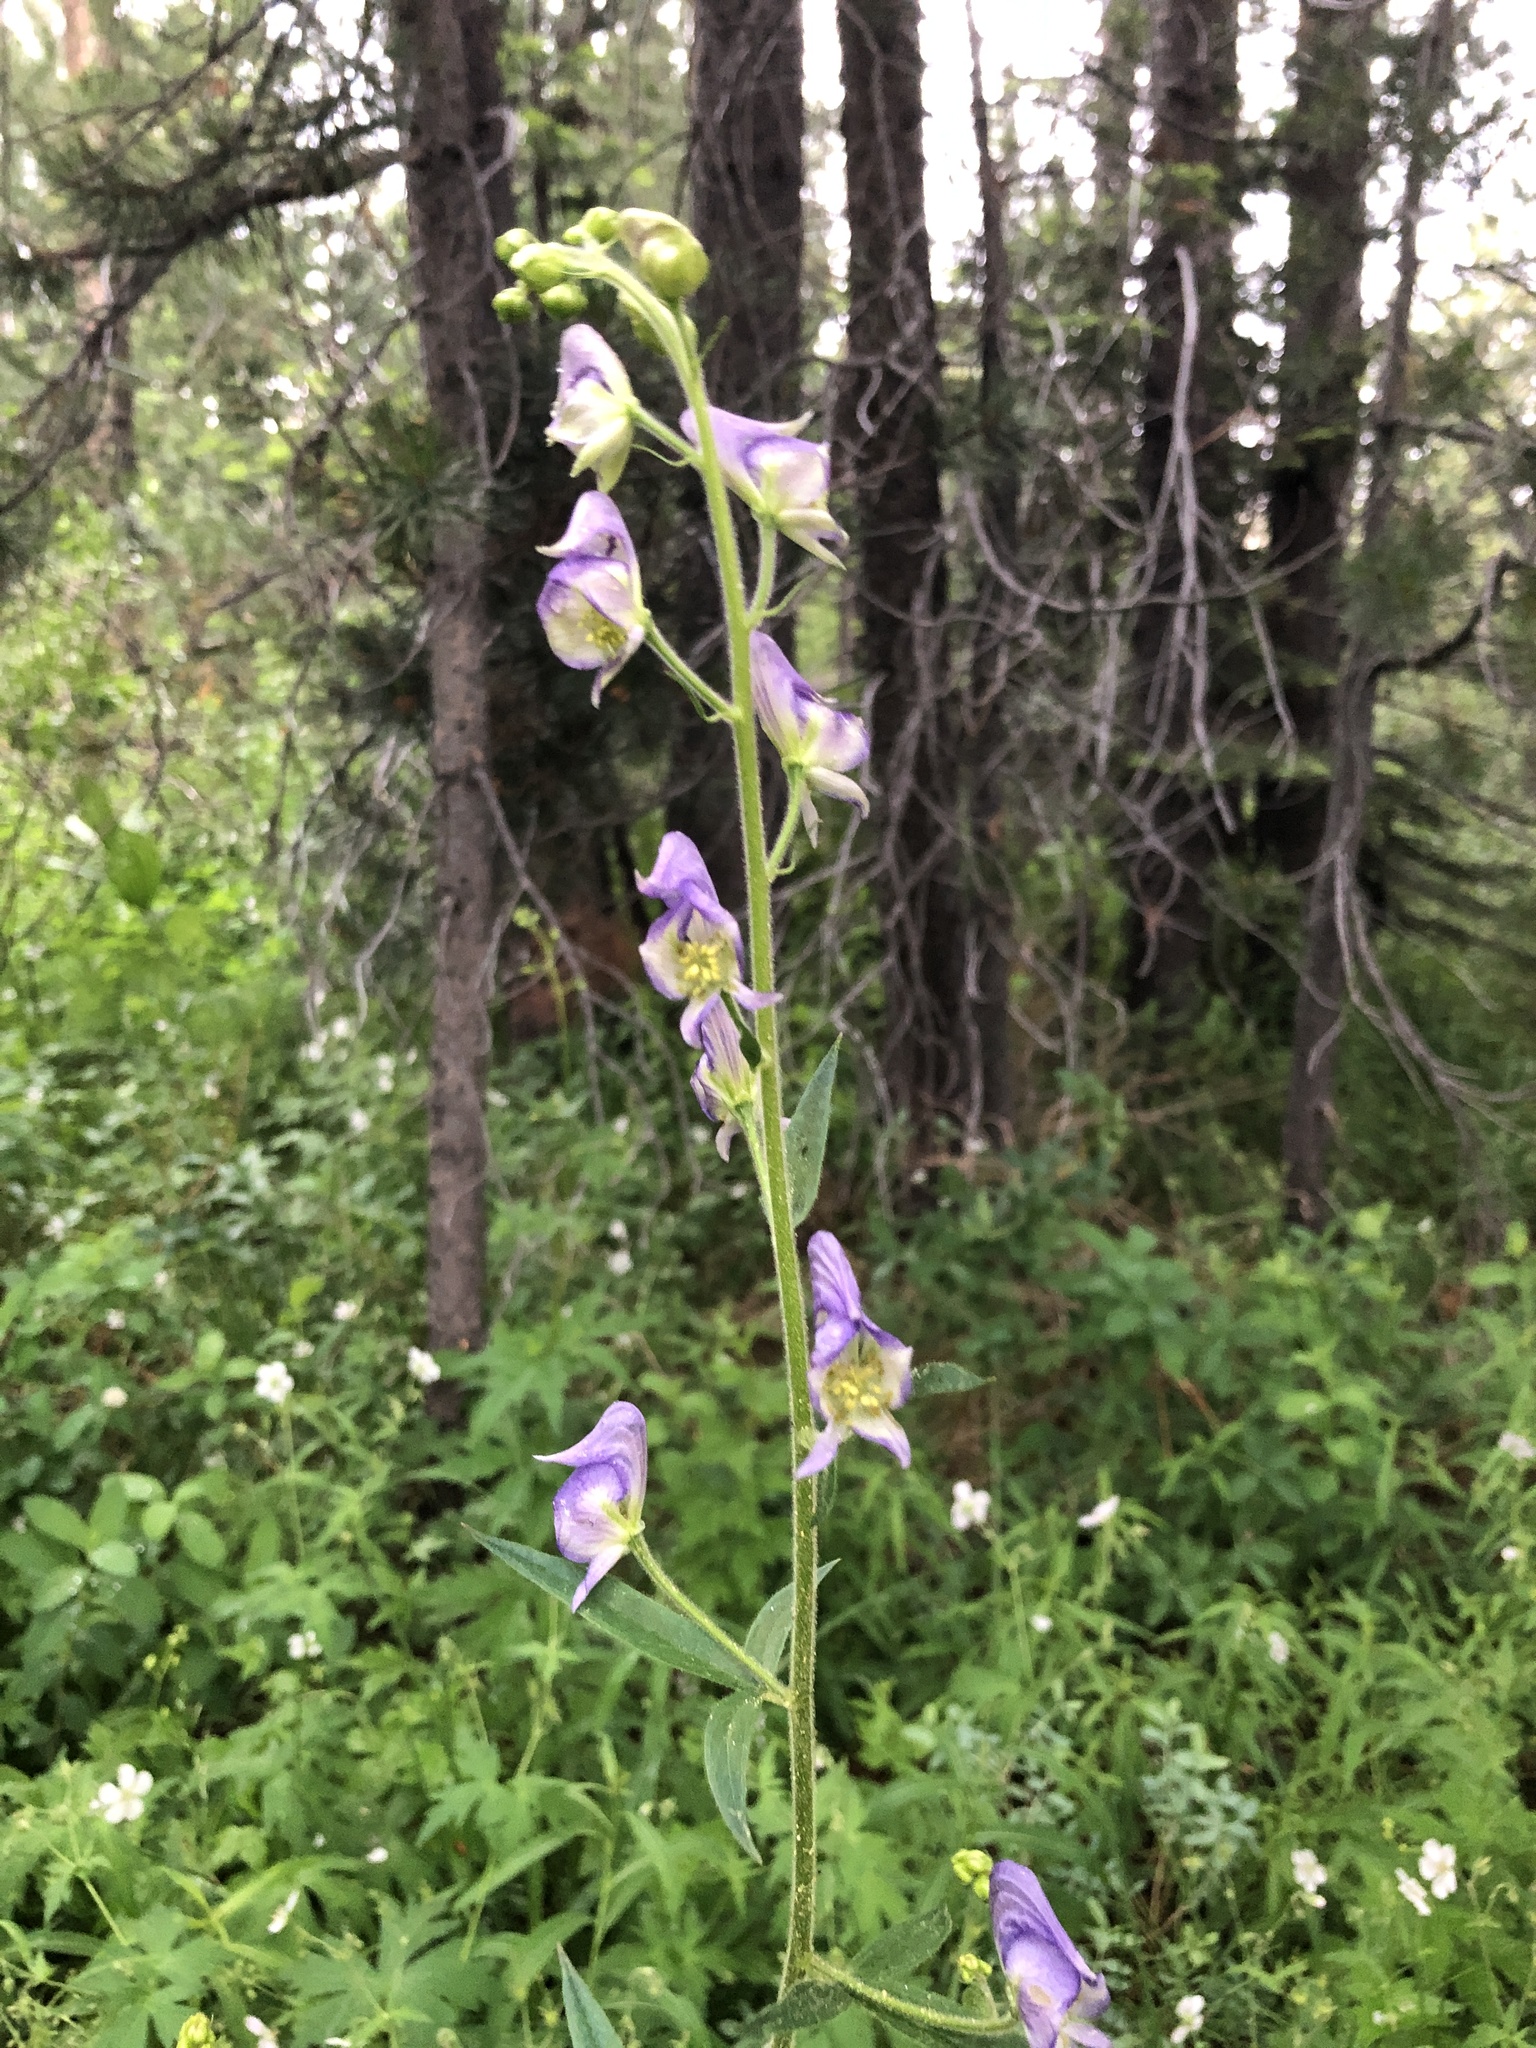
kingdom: Plantae
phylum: Tracheophyta
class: Magnoliopsida
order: Ranunculales
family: Ranunculaceae
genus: Aconitum
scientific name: Aconitum columbianum
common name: Columbia aconite
